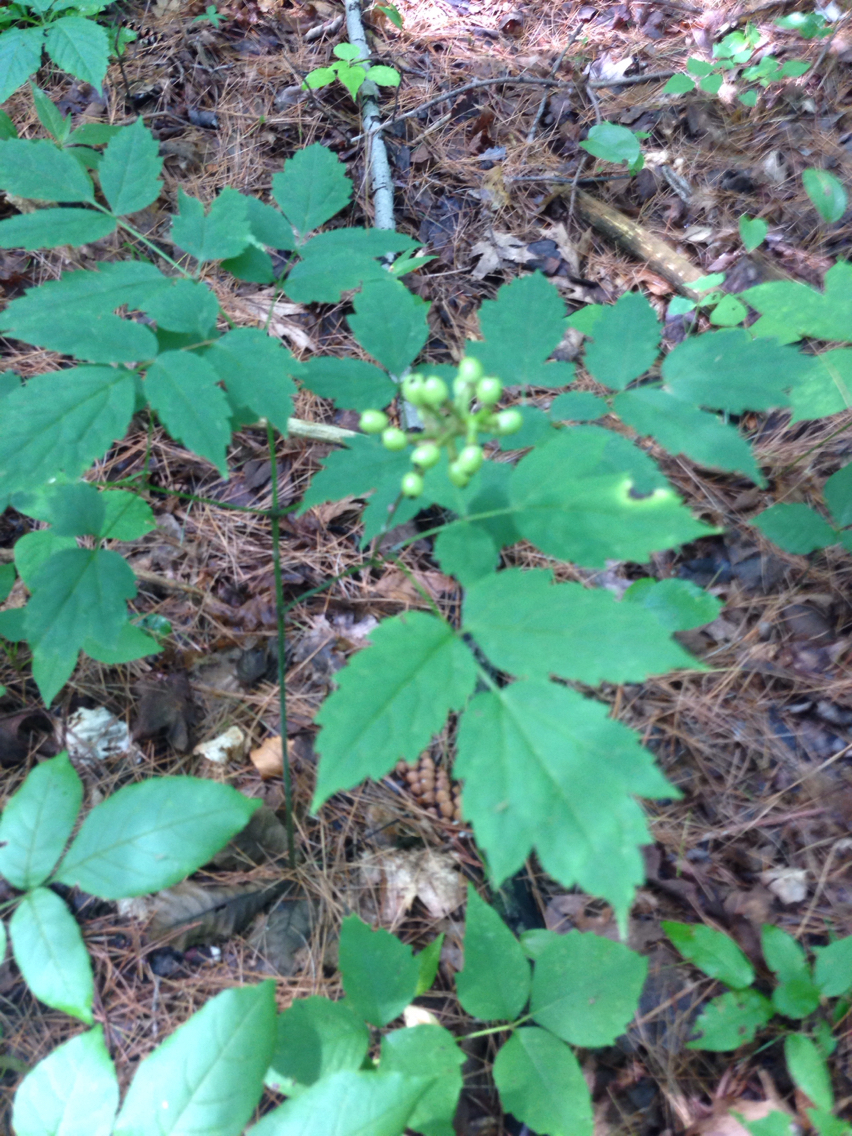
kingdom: Plantae
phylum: Tracheophyta
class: Magnoliopsida
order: Ranunculales
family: Ranunculaceae
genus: Actaea
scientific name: Actaea pachypoda
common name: Doll's-eyes
